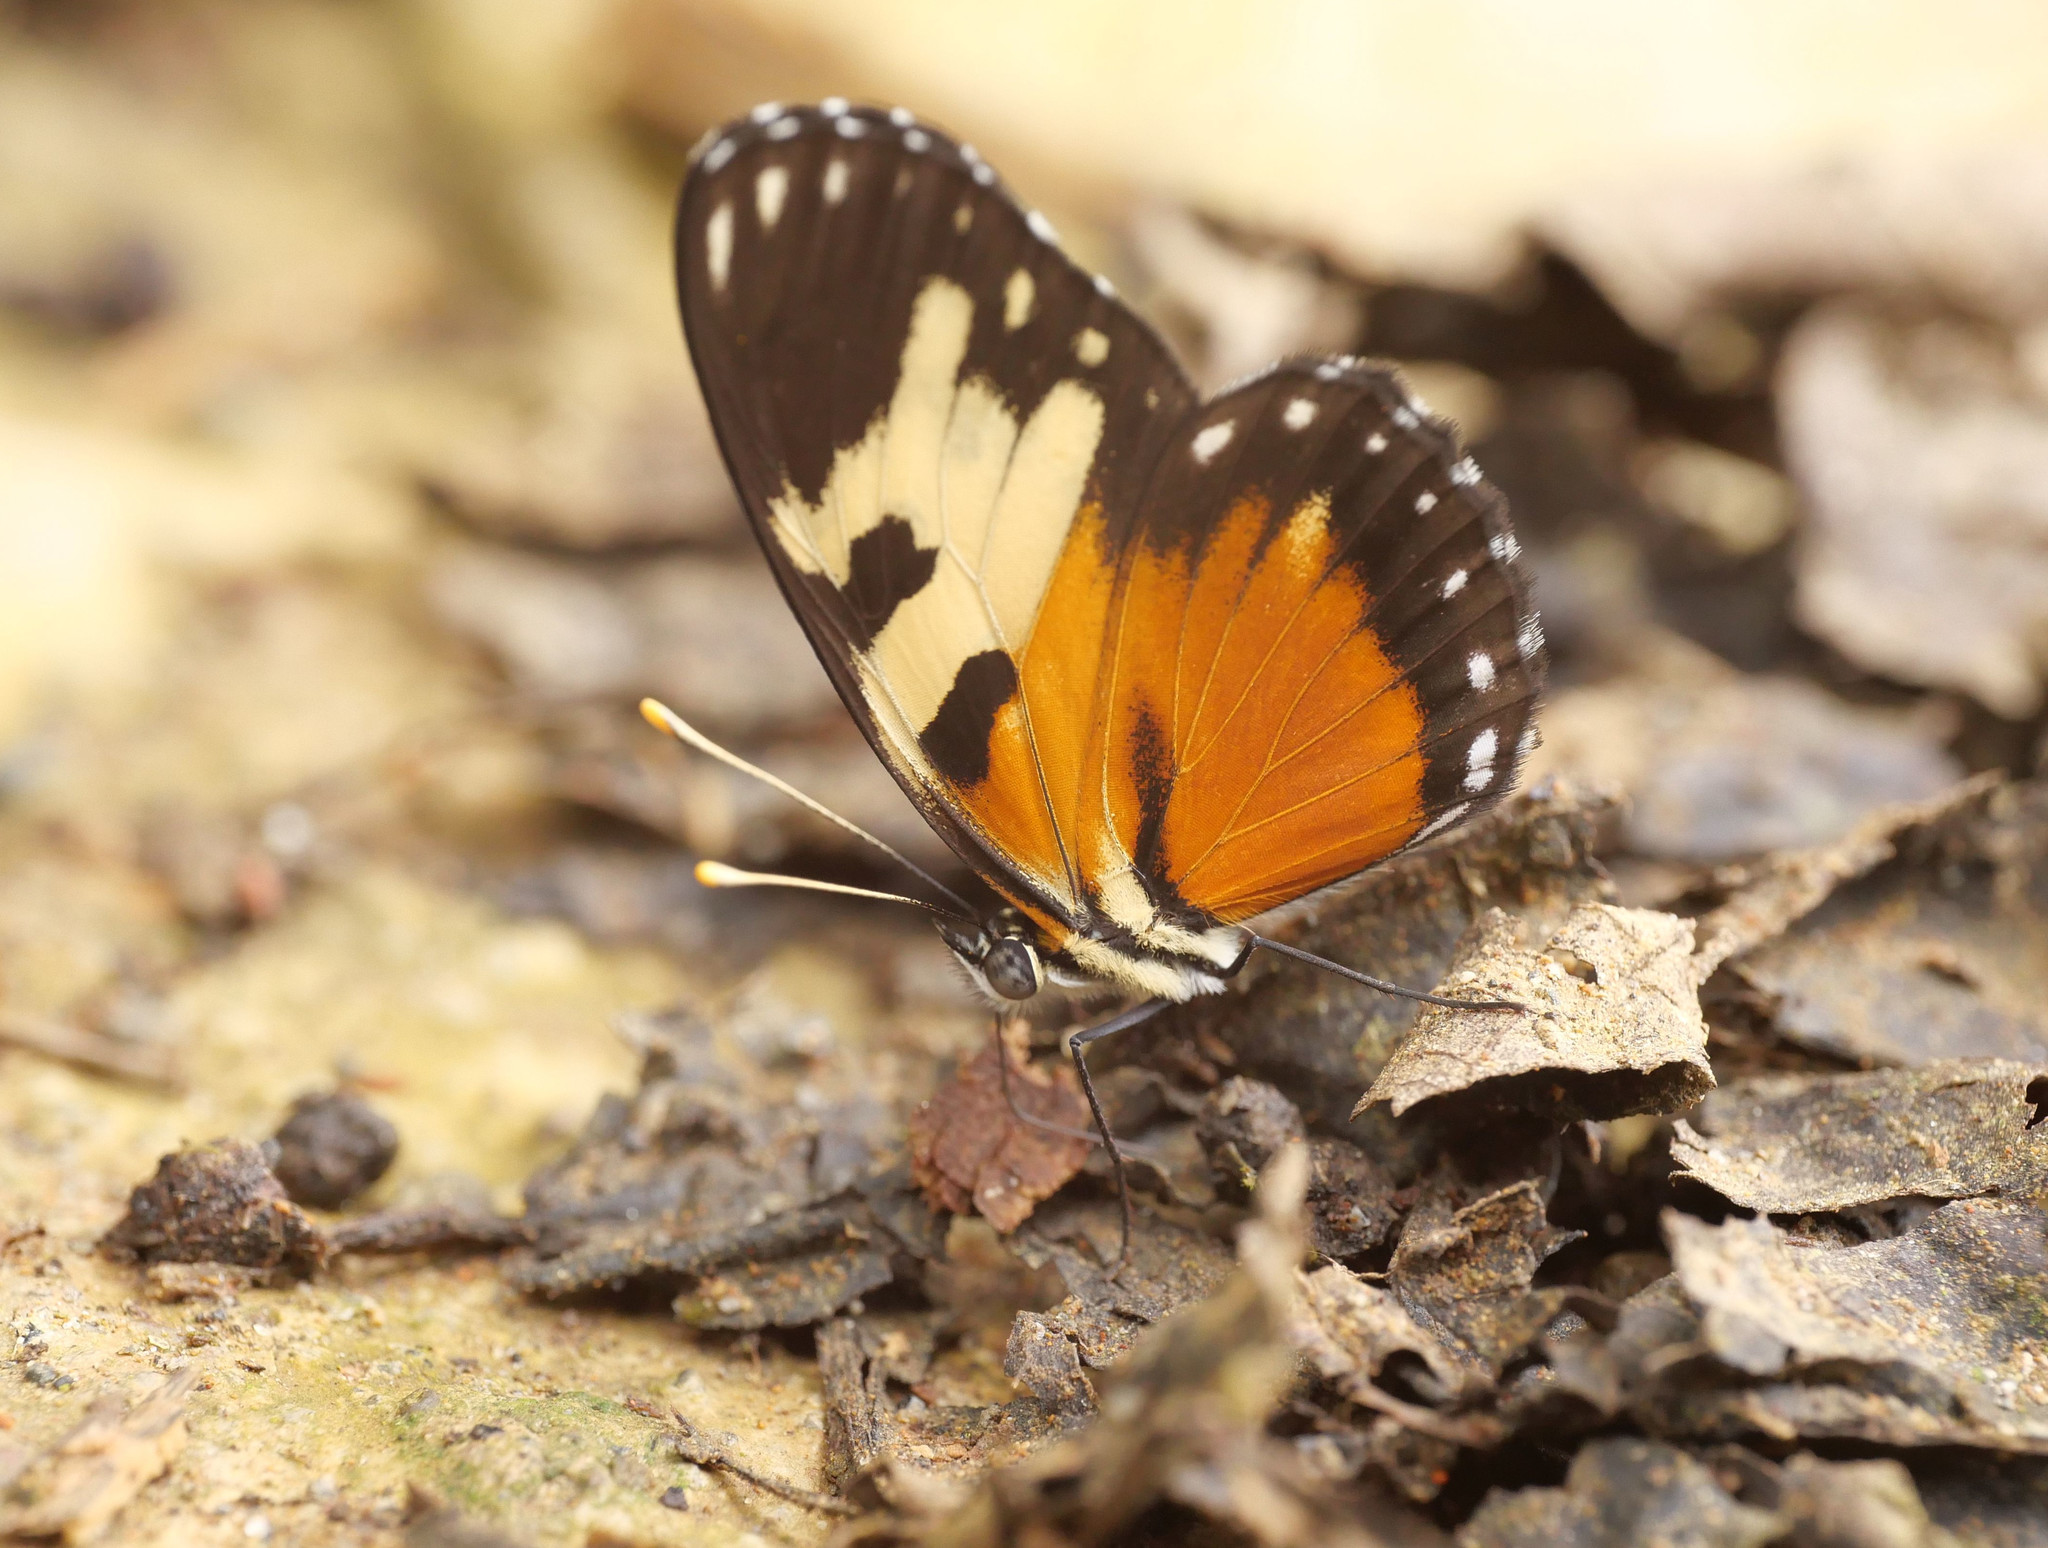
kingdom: Animalia
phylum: Arthropoda
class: Insecta
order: Lepidoptera
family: Nymphalidae
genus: Eresia
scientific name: Eresia quintilla
